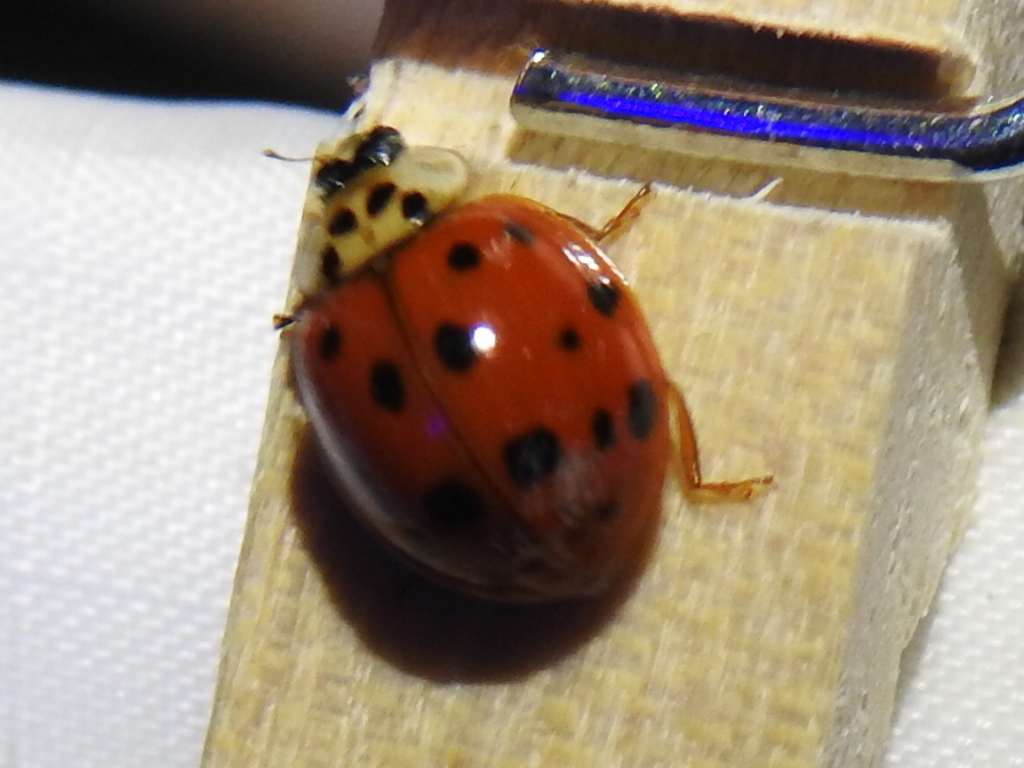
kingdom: Animalia
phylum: Arthropoda
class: Insecta
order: Coleoptera
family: Coccinellidae
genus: Harmonia
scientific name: Harmonia axyridis
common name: Harlequin ladybird
